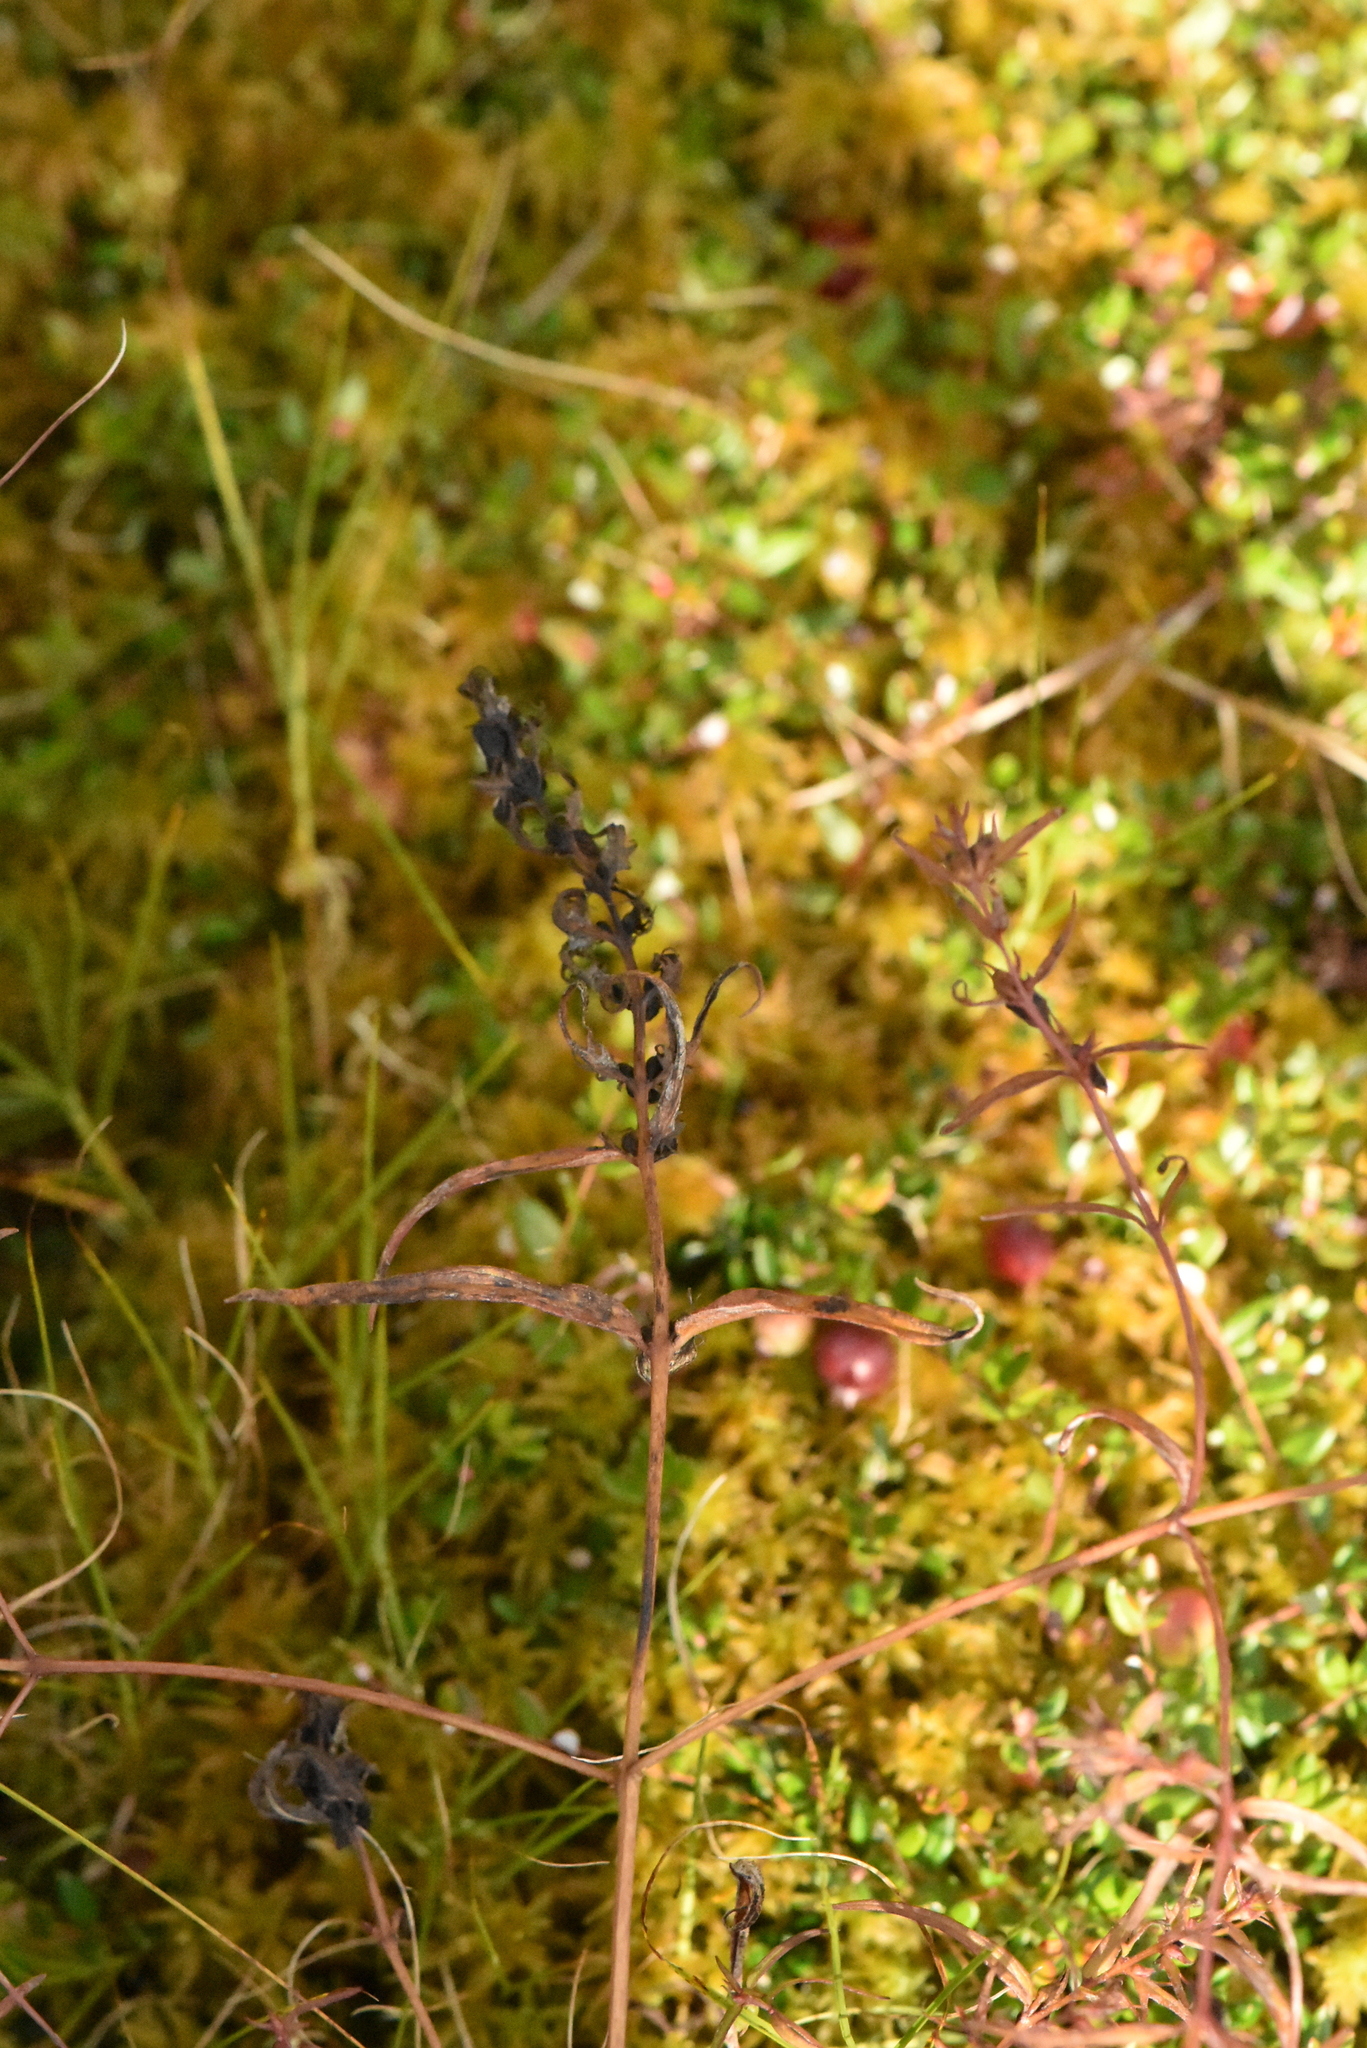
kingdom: Plantae
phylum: Tracheophyta
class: Magnoliopsida
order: Lamiales
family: Orobanchaceae
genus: Melampyrum
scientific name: Melampyrum pratense
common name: Common cow-wheat
